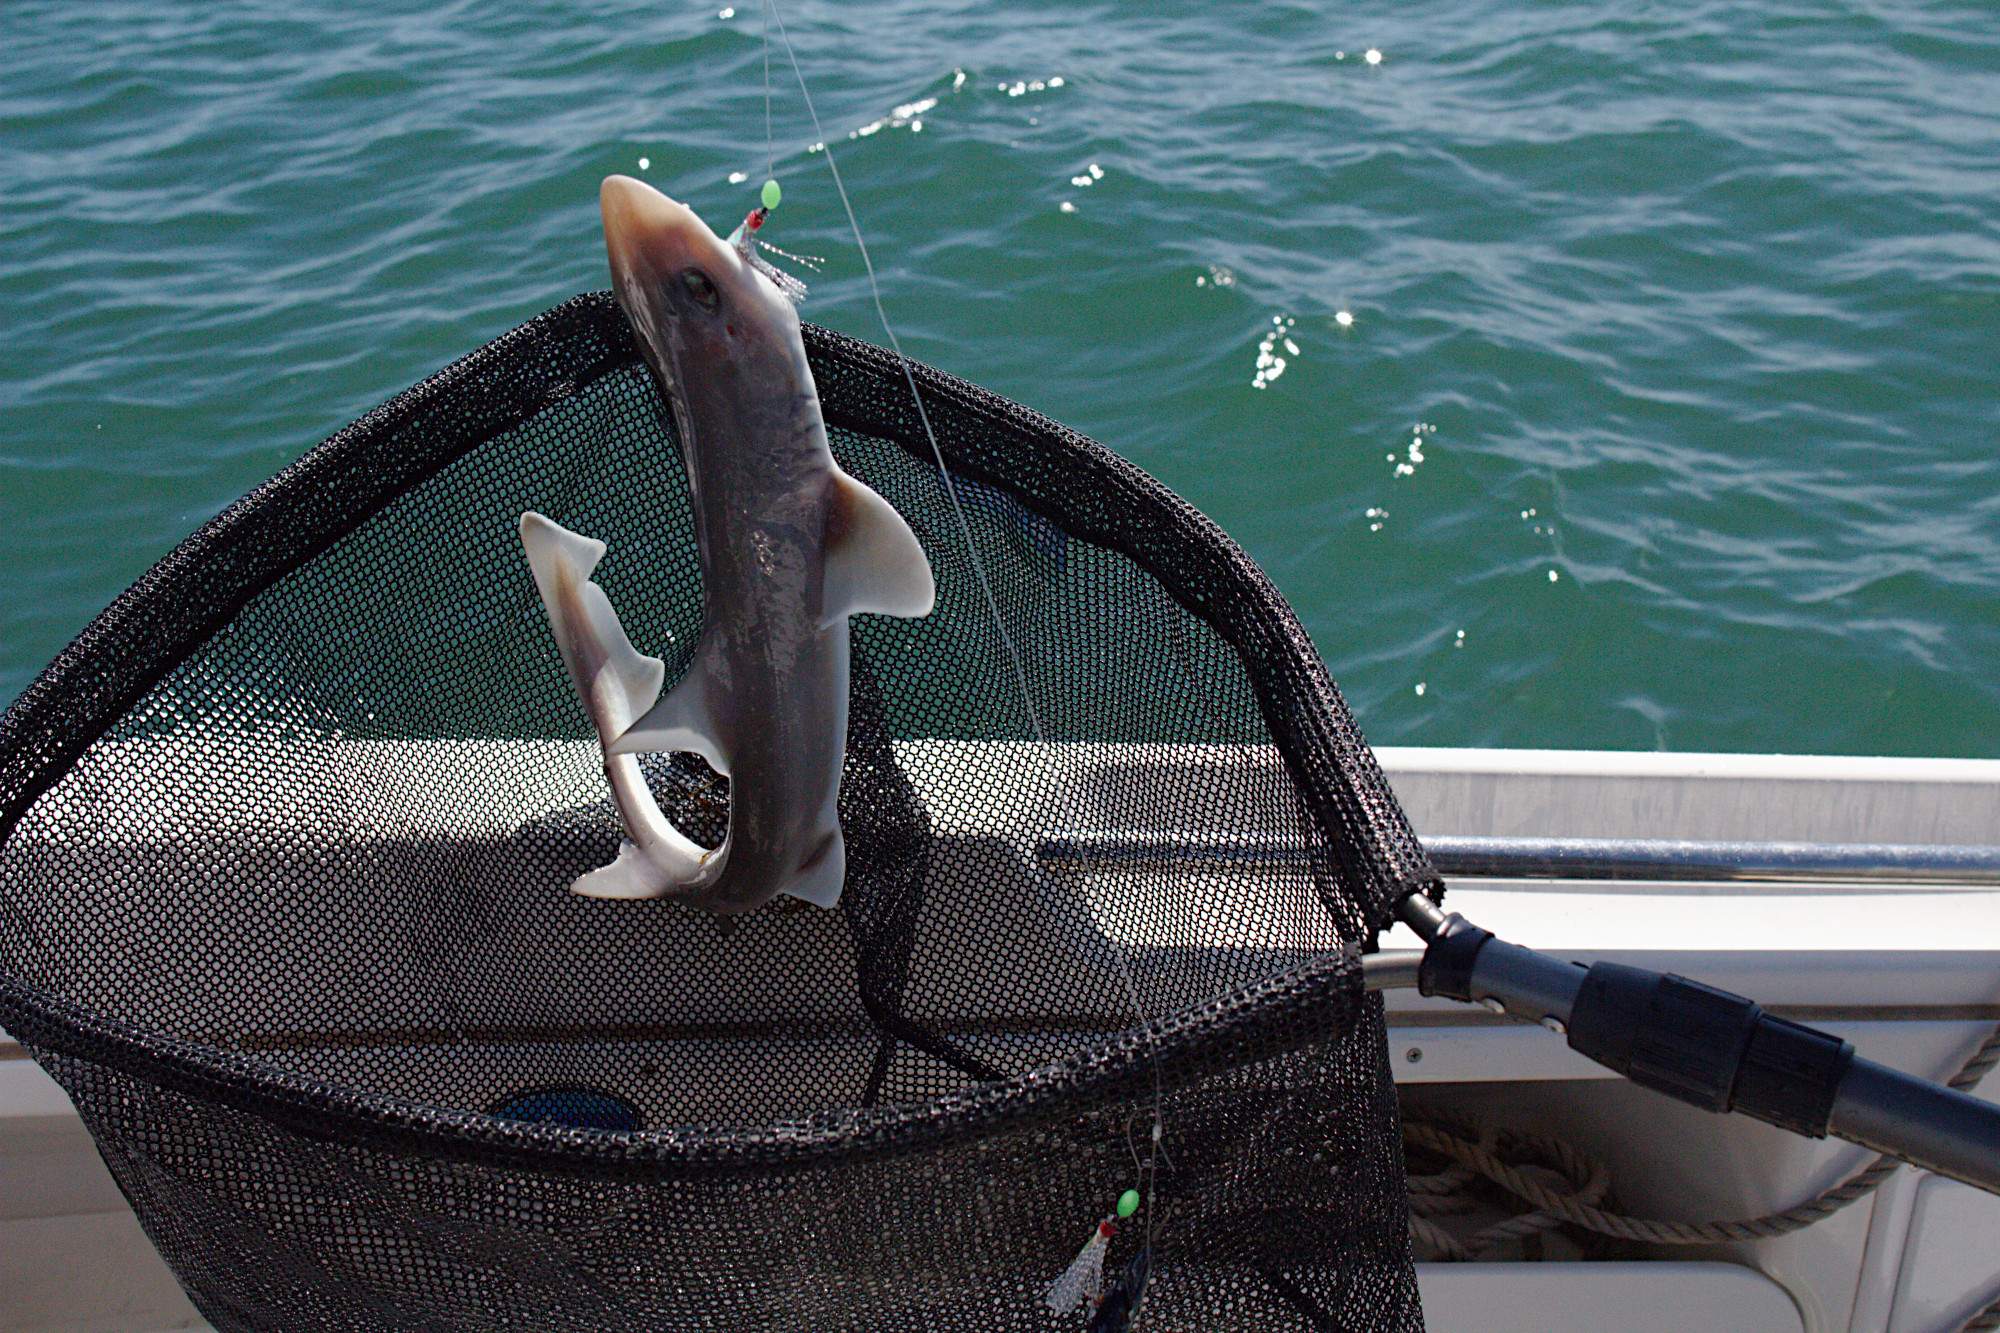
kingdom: Animalia
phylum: Chordata
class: Elasmobranchii
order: Carcharhiniformes
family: Triakidae
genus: Mustelus
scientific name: Mustelus antarcticus
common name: Gummy shark
